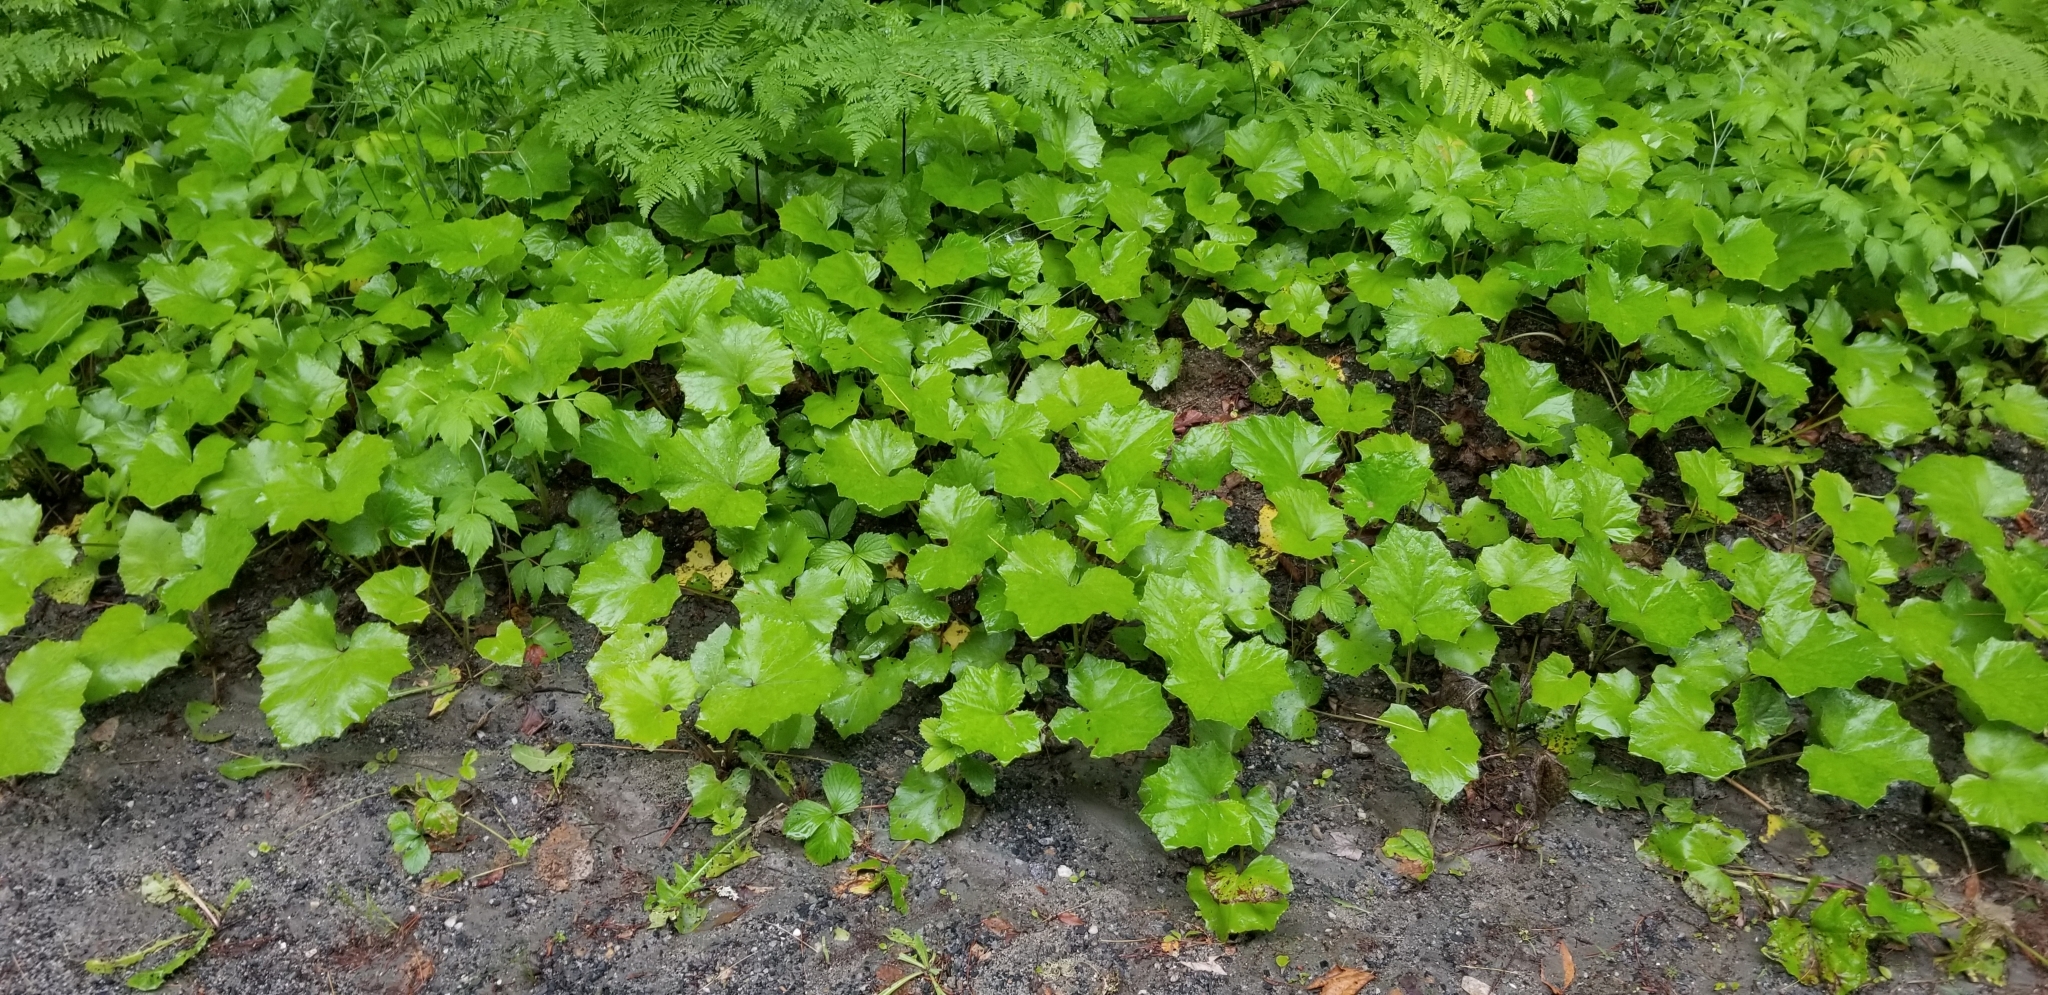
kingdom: Plantae
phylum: Tracheophyta
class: Magnoliopsida
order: Asterales
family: Asteraceae
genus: Tussilago
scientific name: Tussilago farfara
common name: Coltsfoot
